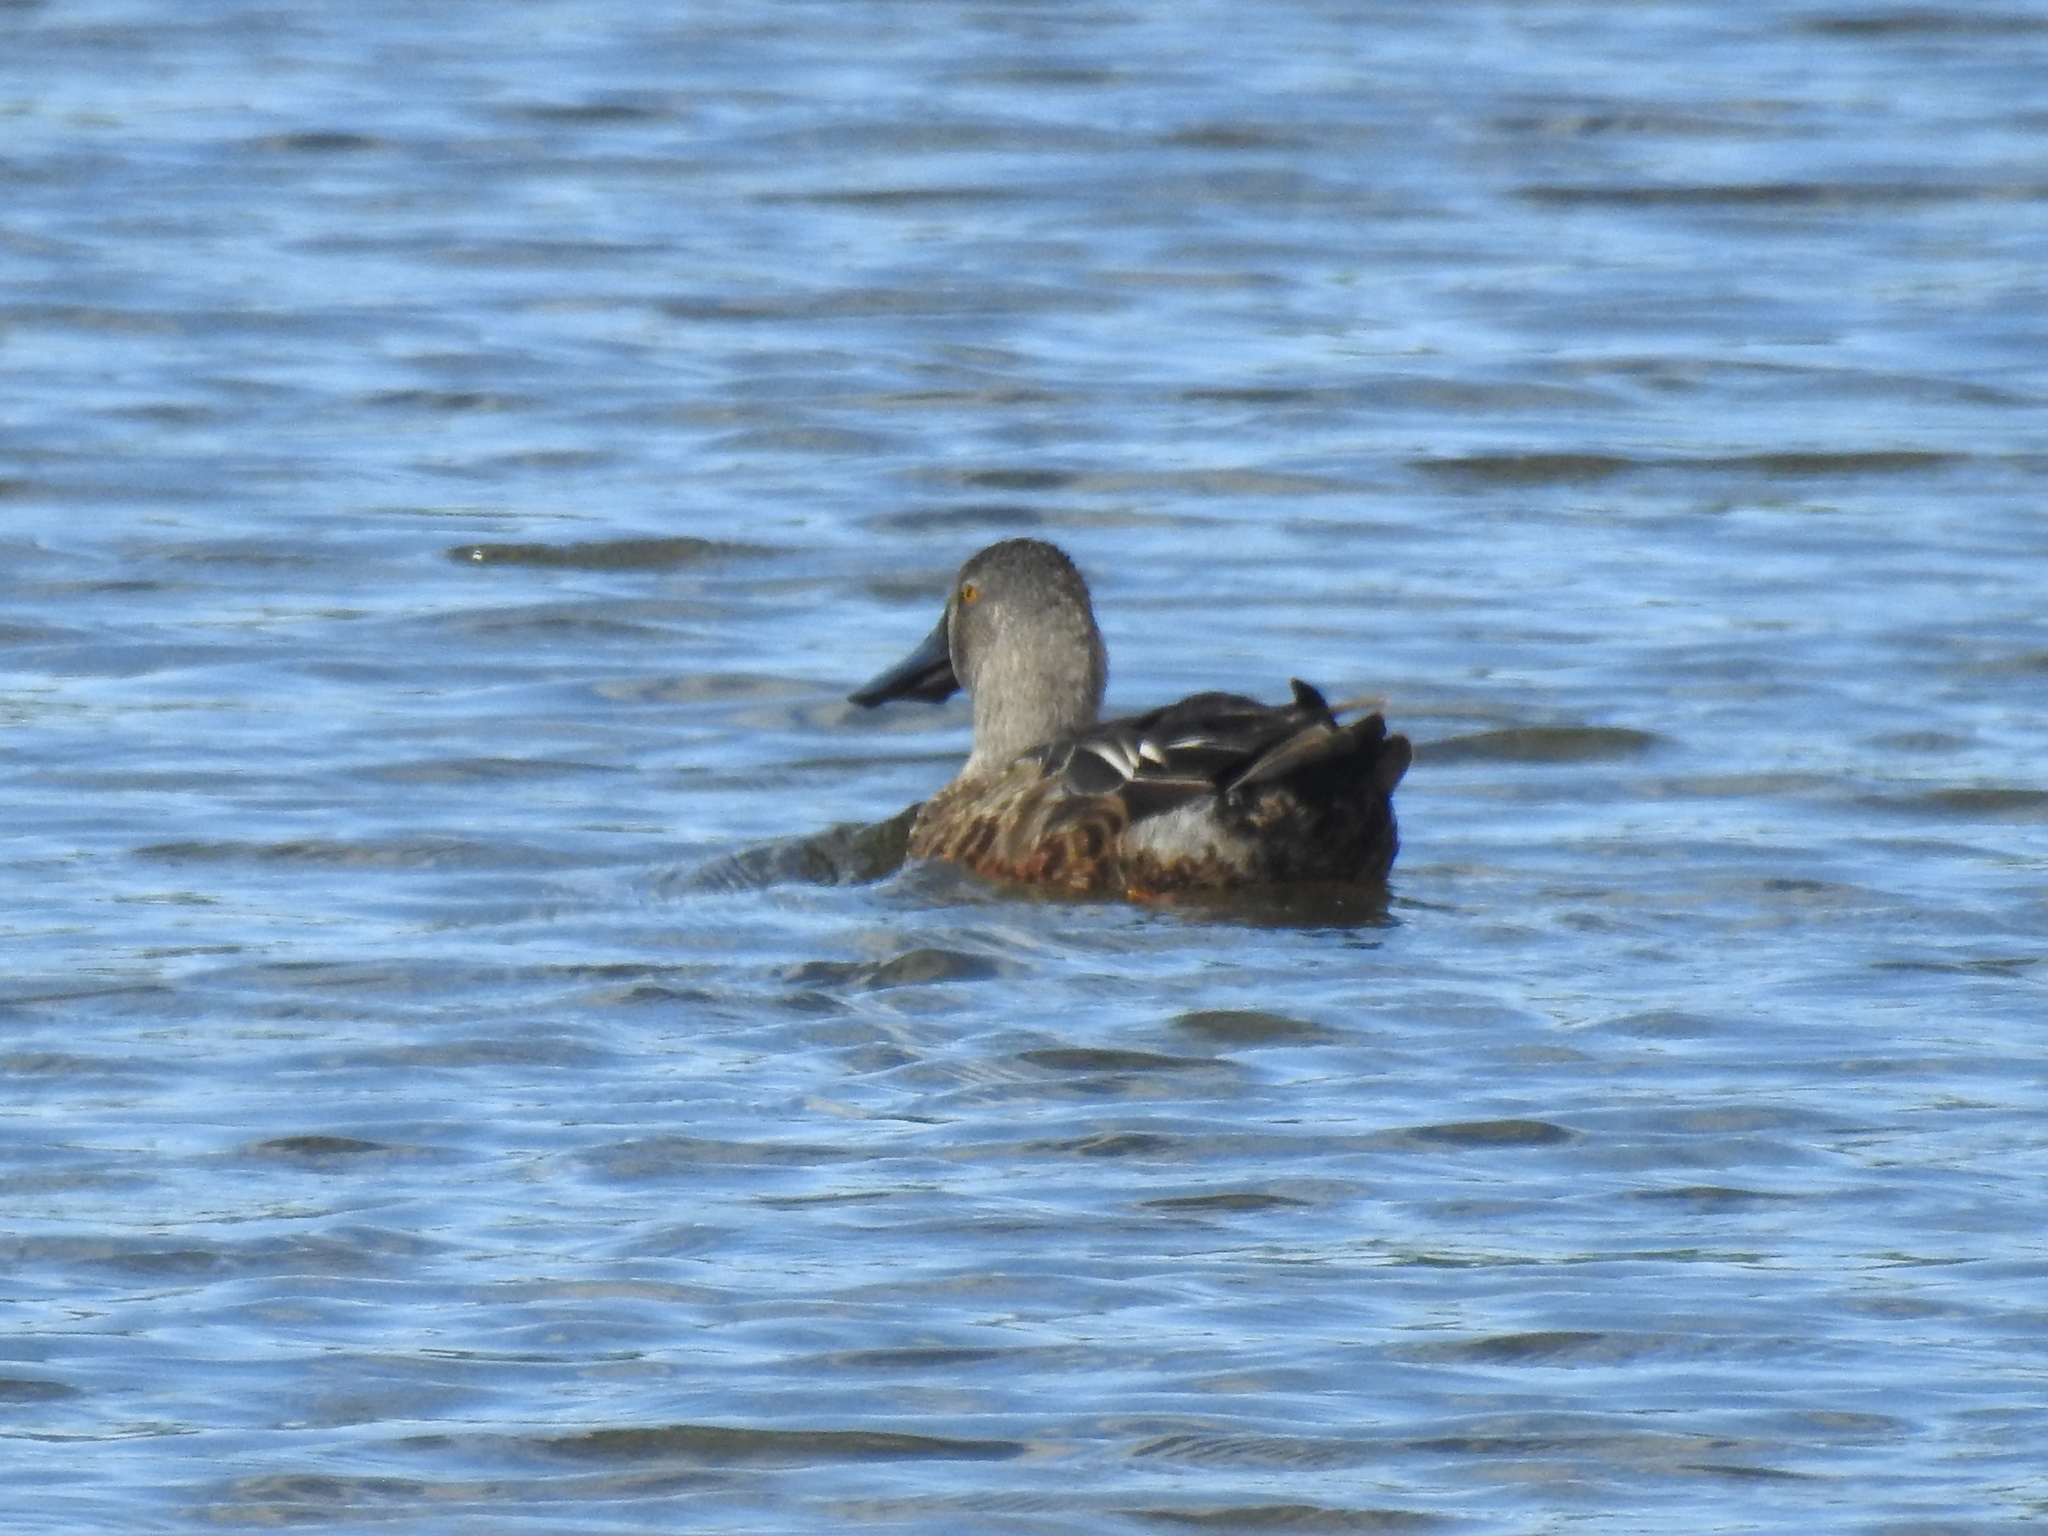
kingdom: Animalia
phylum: Chordata
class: Aves
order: Anseriformes
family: Anatidae
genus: Spatula
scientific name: Spatula rhynchotis
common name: Australian shoveler
